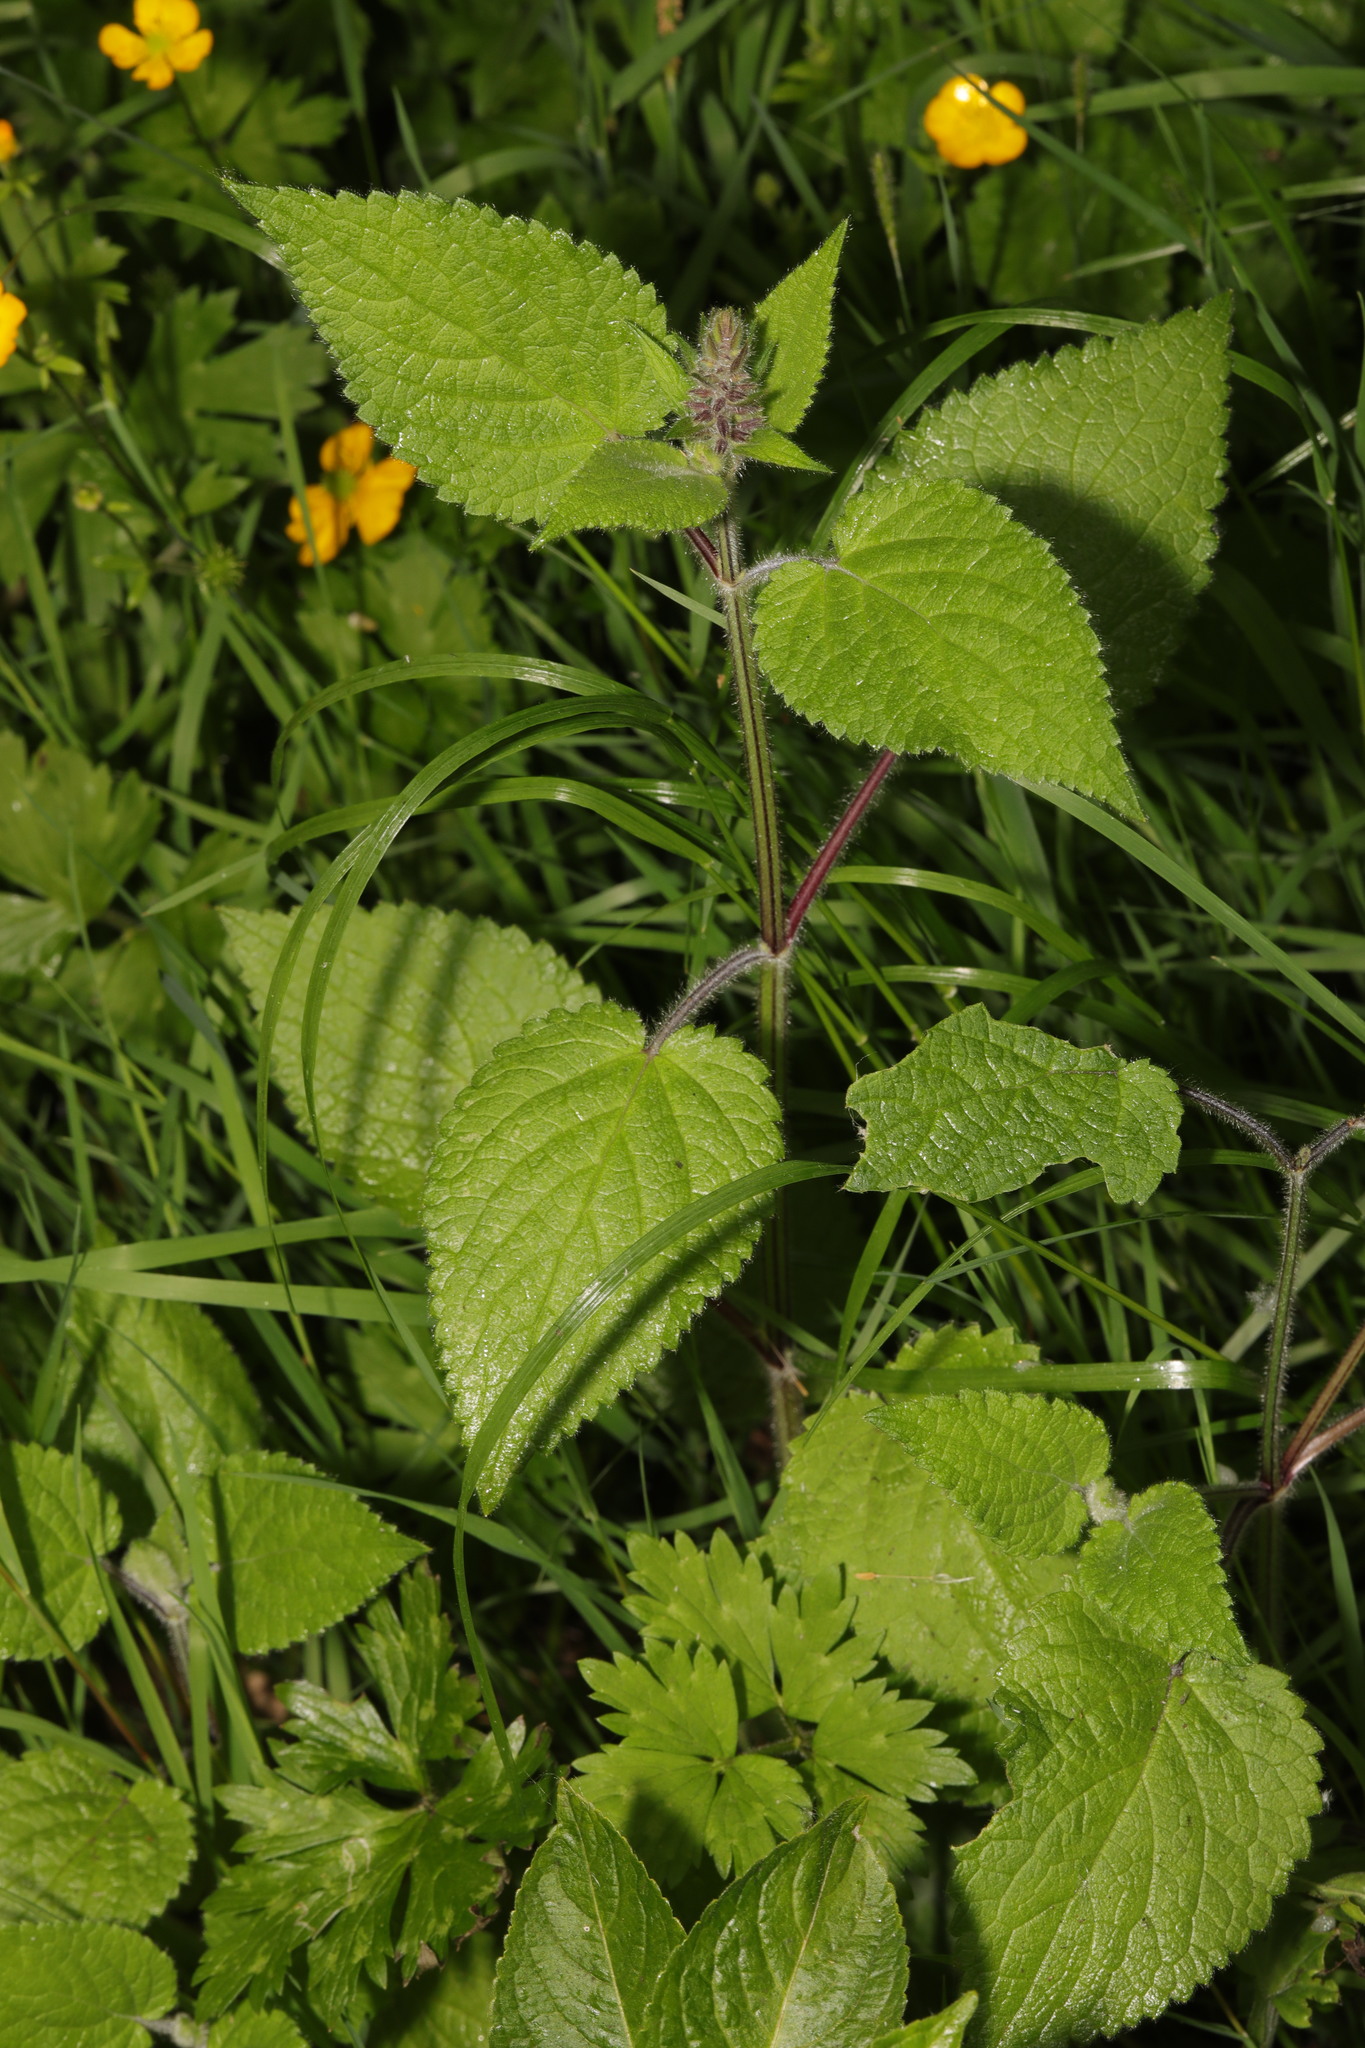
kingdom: Plantae
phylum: Tracheophyta
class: Magnoliopsida
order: Lamiales
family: Lamiaceae
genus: Stachys
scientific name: Stachys sylvatica
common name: Hedge woundwort
